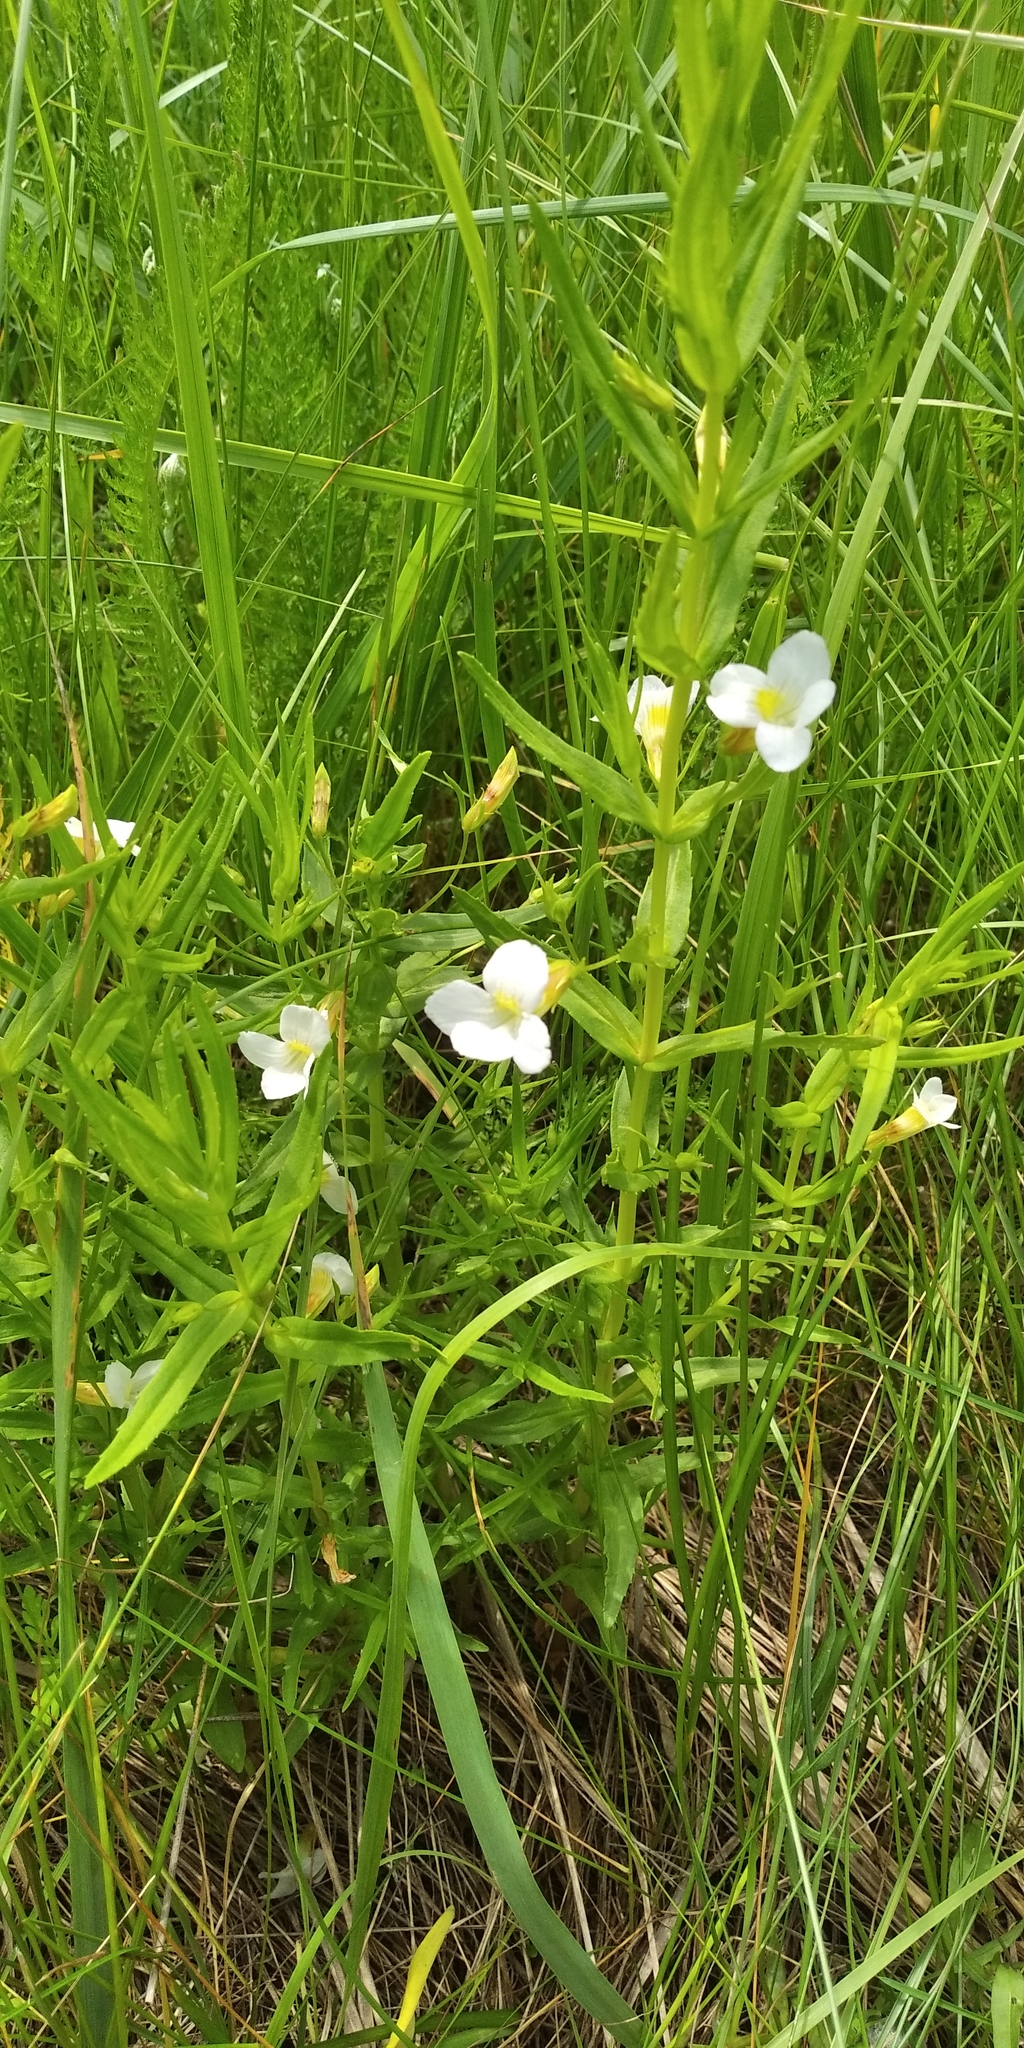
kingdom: Plantae
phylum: Tracheophyta
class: Magnoliopsida
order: Lamiales
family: Plantaginaceae
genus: Gratiola
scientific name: Gratiola officinalis
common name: Gratiola
